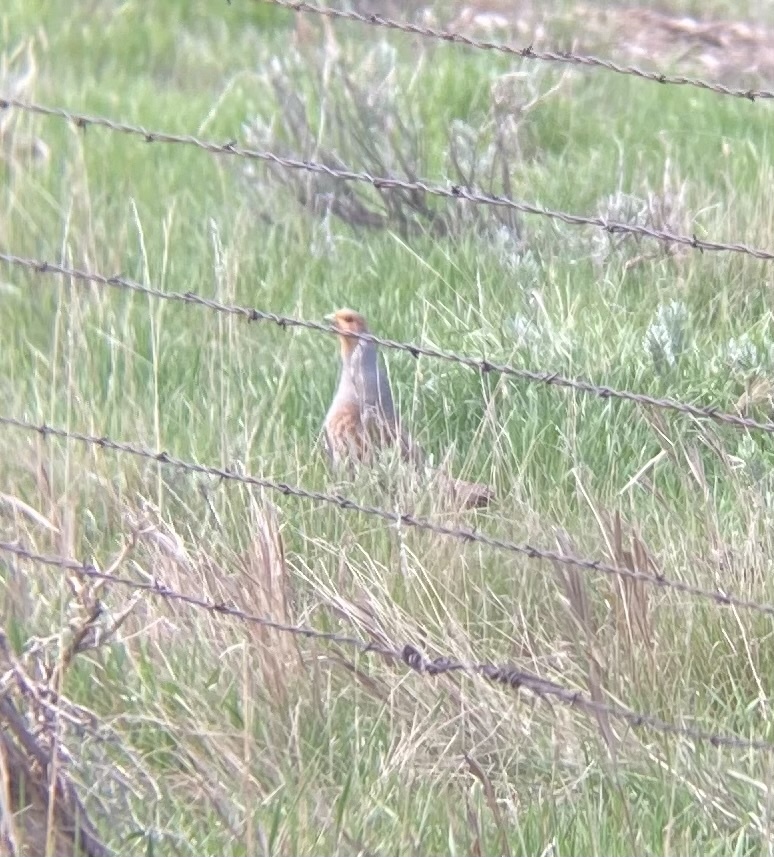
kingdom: Animalia
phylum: Chordata
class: Aves
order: Galliformes
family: Phasianidae
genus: Perdix
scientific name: Perdix perdix
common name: Grey partridge
